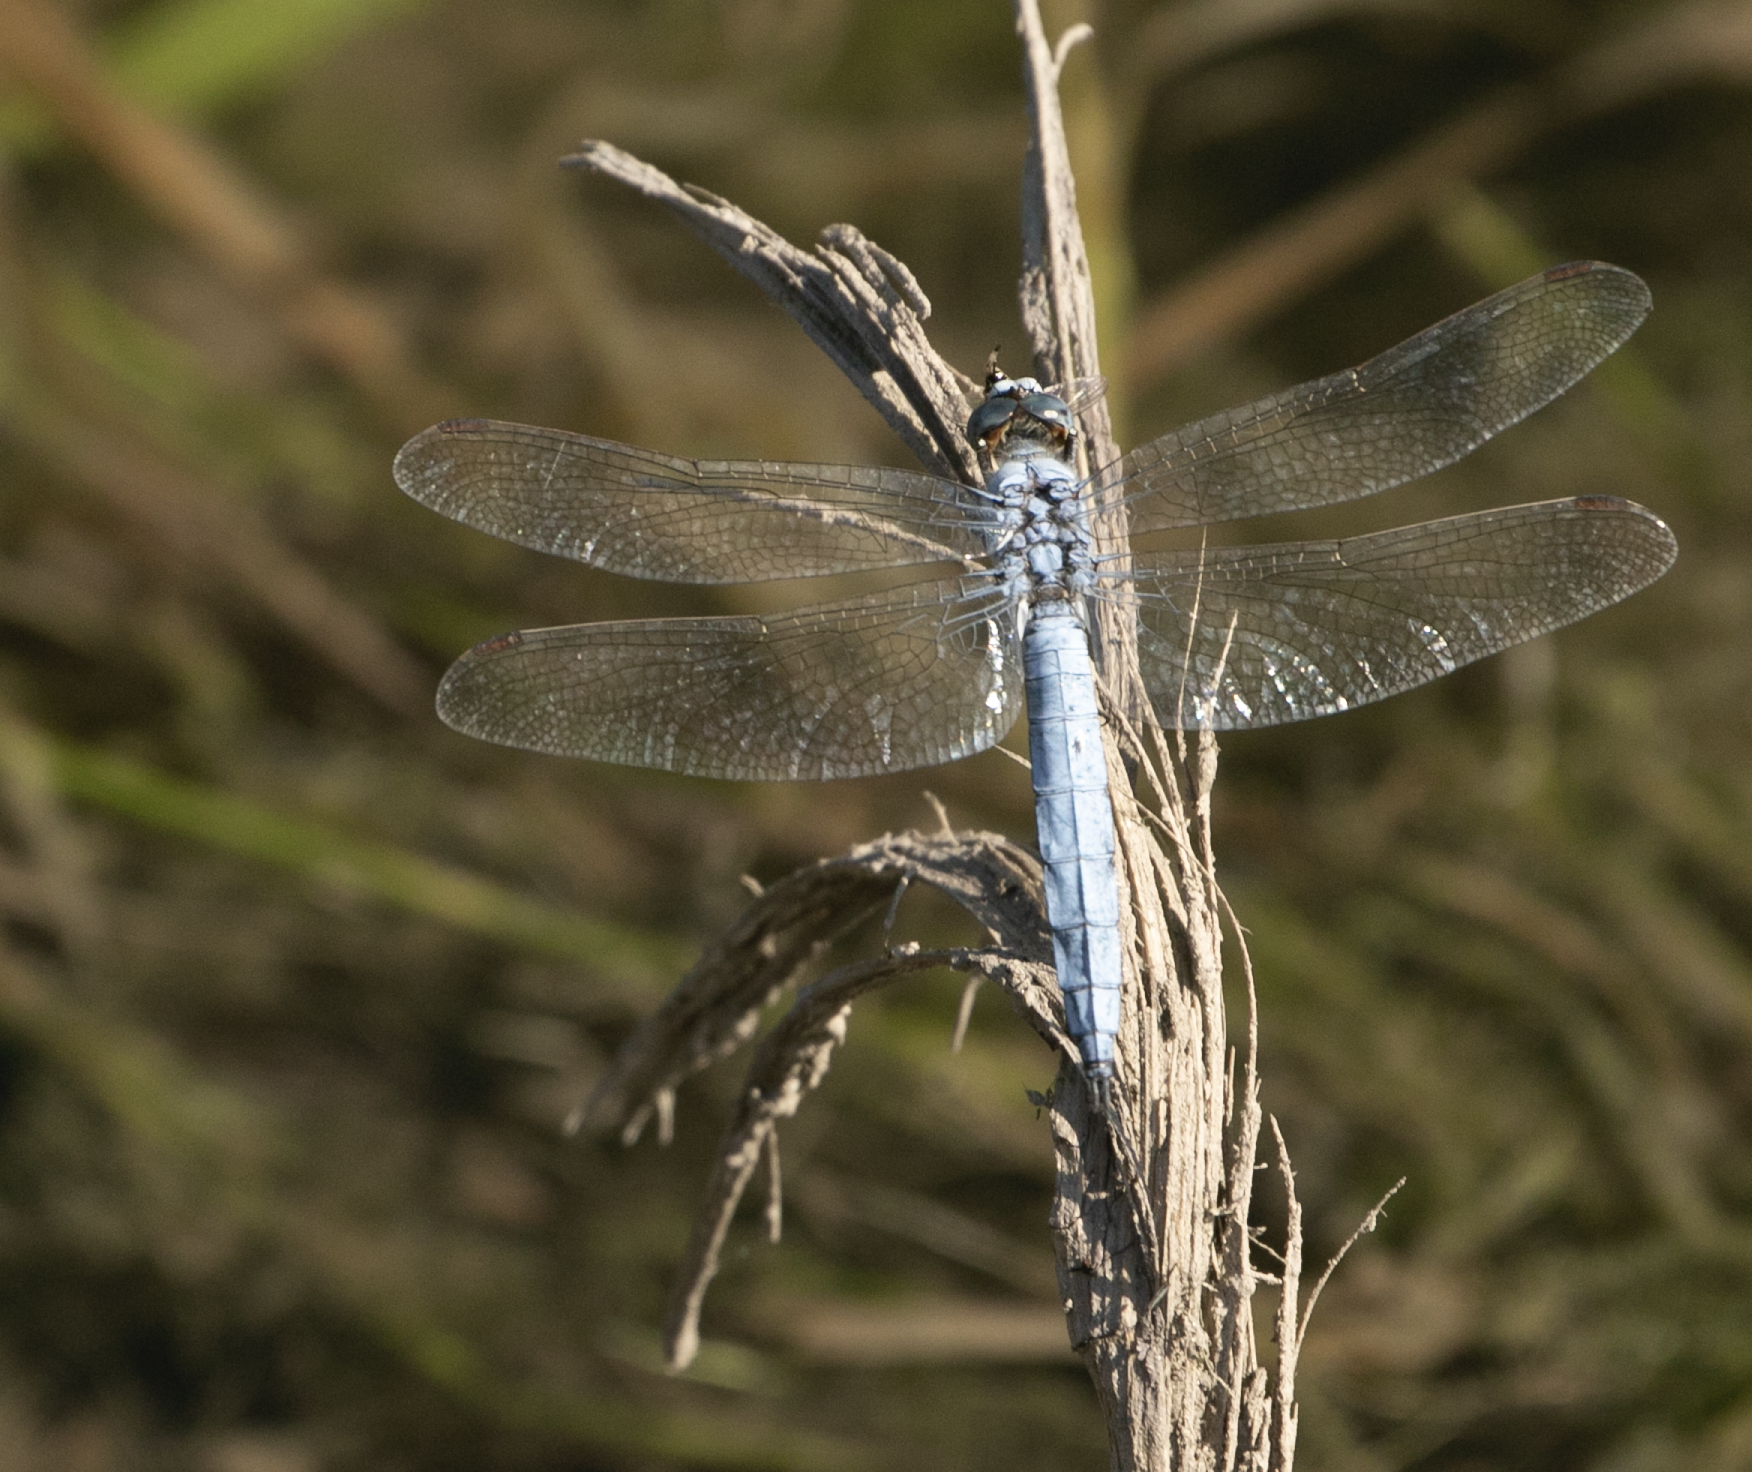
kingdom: Animalia
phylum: Arthropoda
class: Insecta
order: Odonata
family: Libellulidae
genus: Orthetrum
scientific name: Orthetrum brunneum
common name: Southern skimmer
